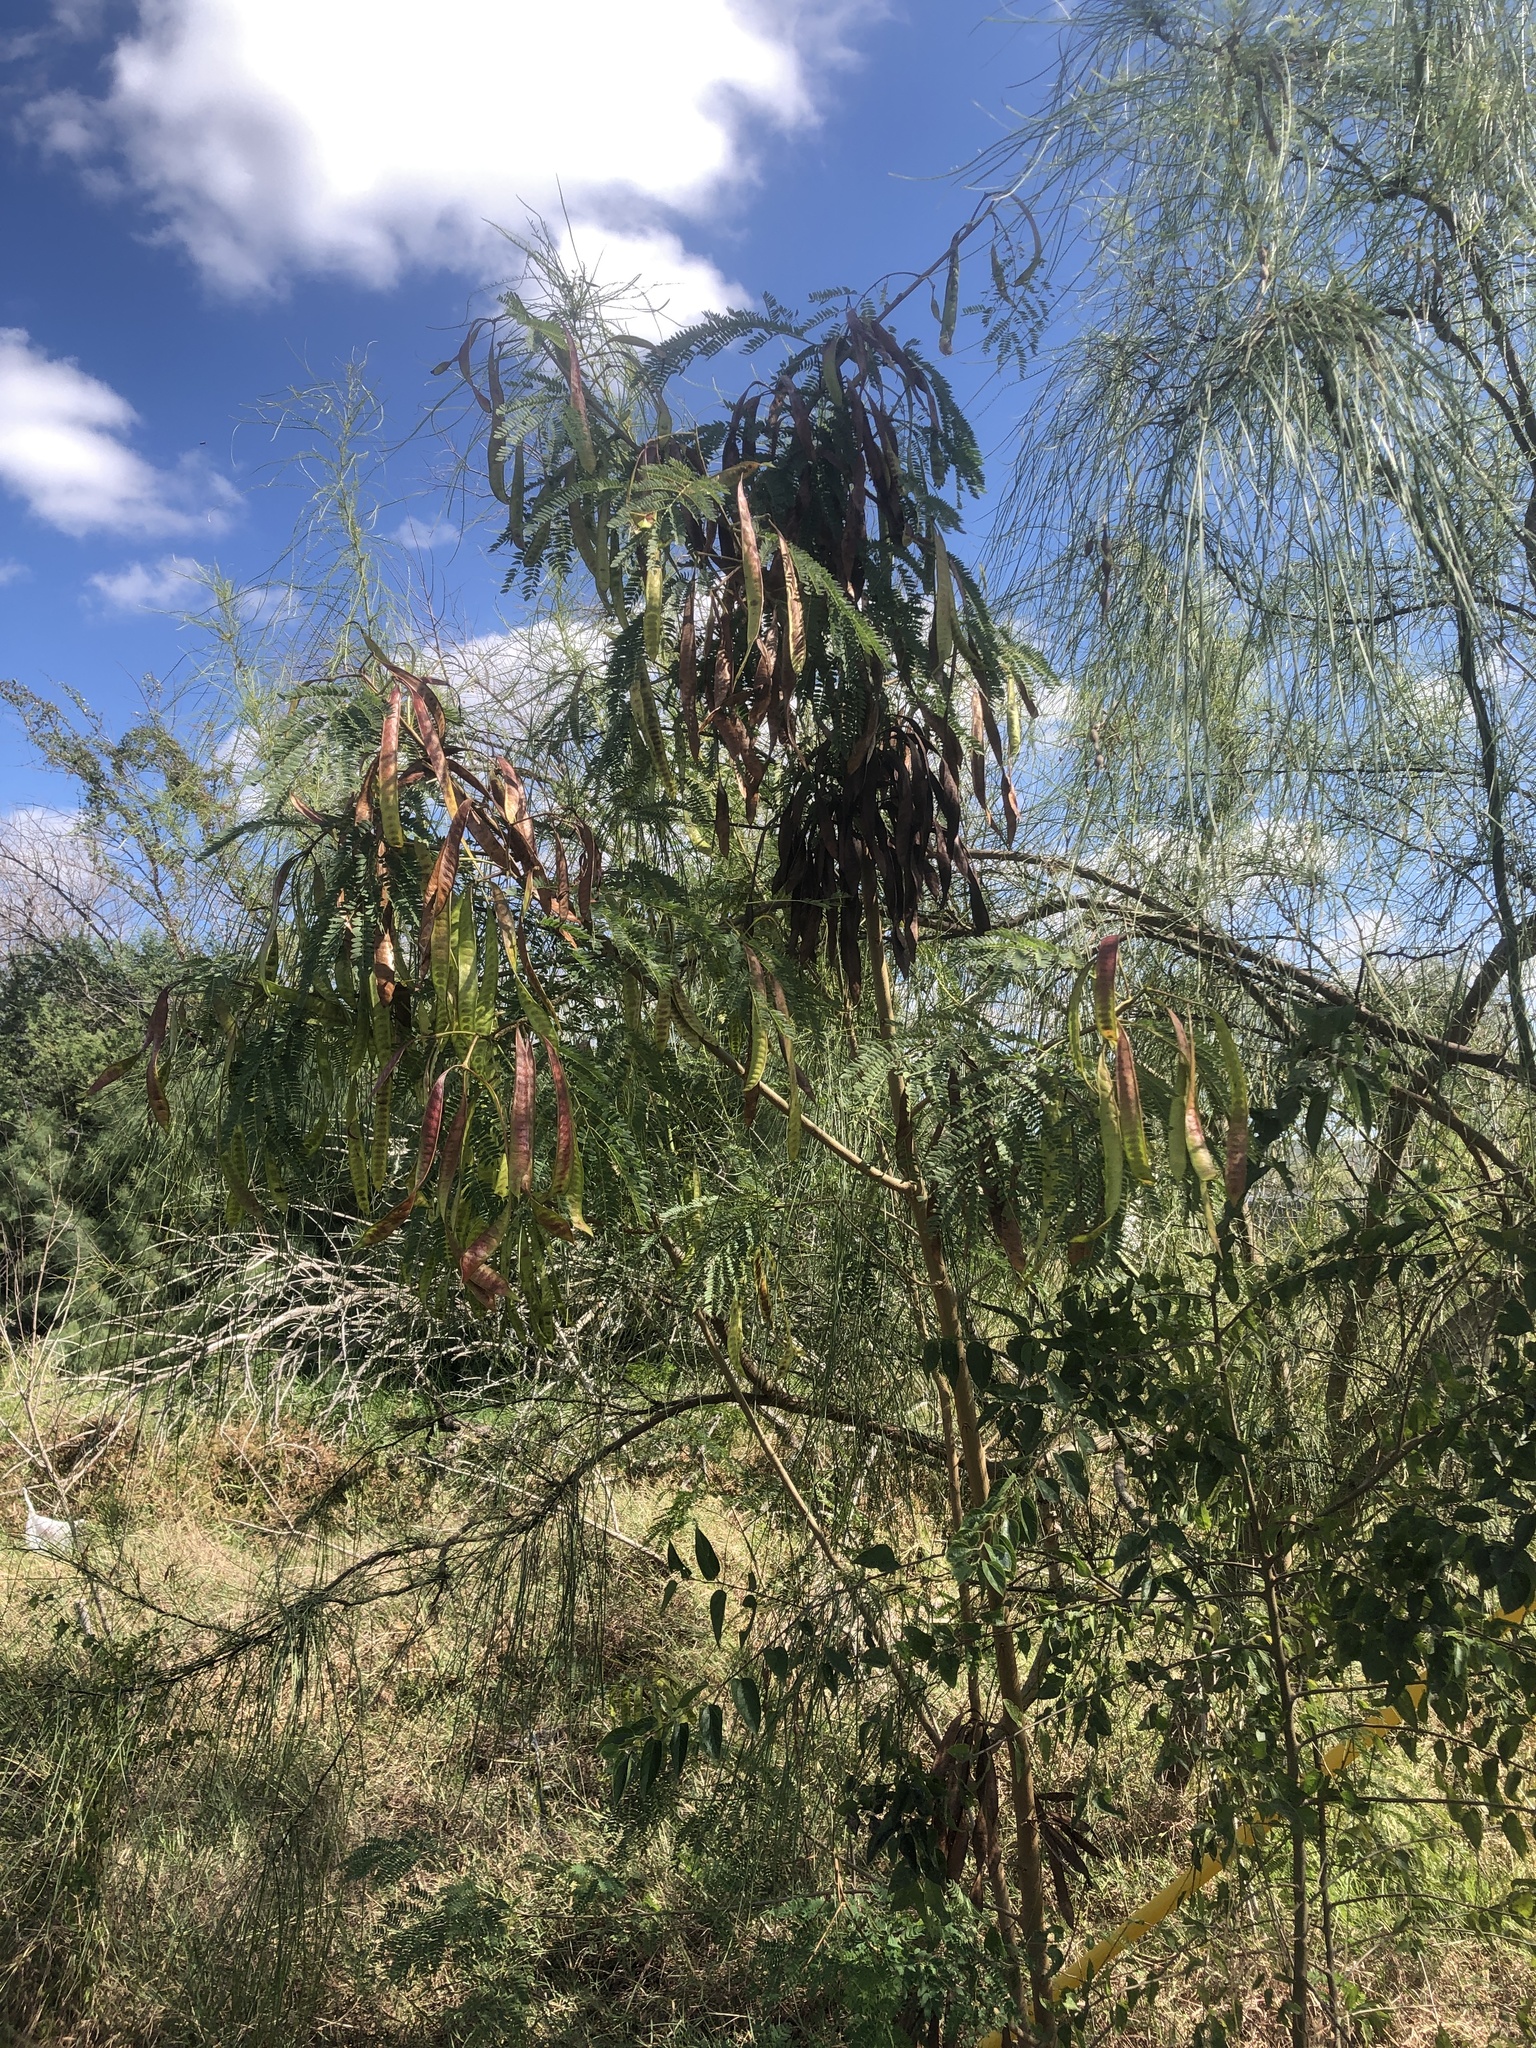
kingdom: Plantae
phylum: Tracheophyta
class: Magnoliopsida
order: Fabales
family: Fabaceae
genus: Leucaena
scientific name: Leucaena leucocephala
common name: White leadtree
